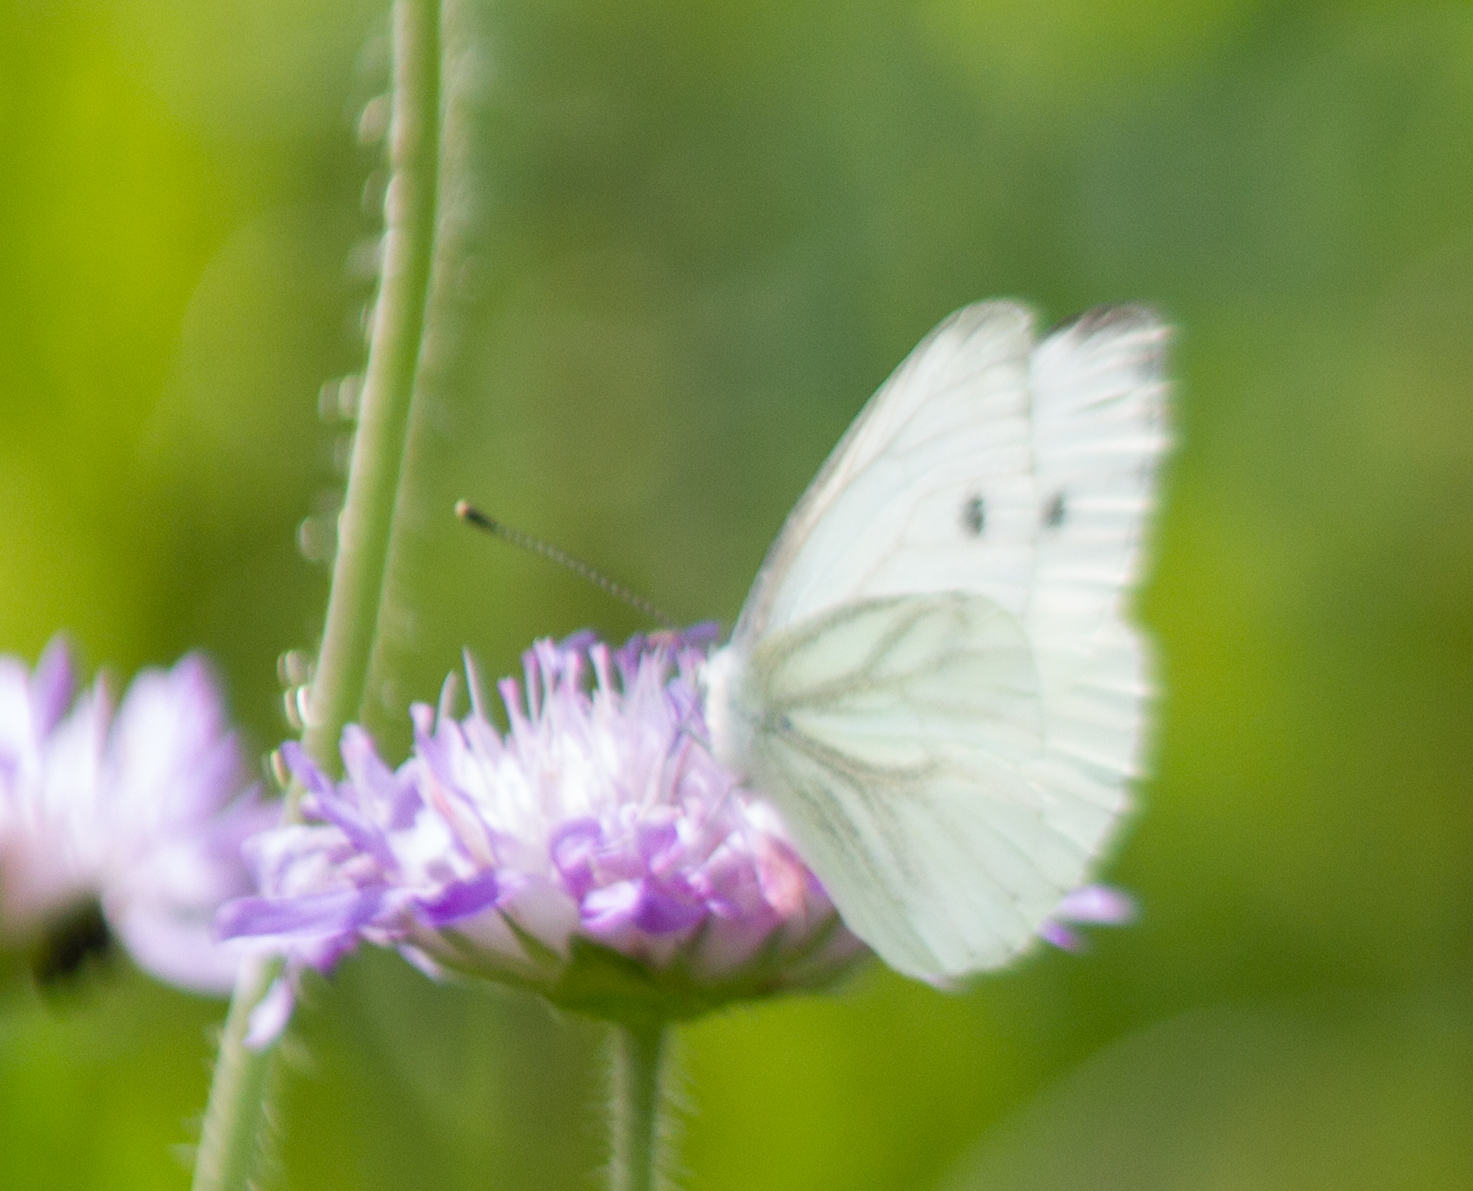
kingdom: Animalia
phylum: Arthropoda
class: Insecta
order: Lepidoptera
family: Pieridae
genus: Pieris
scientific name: Pieris napi
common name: Green-veined white
